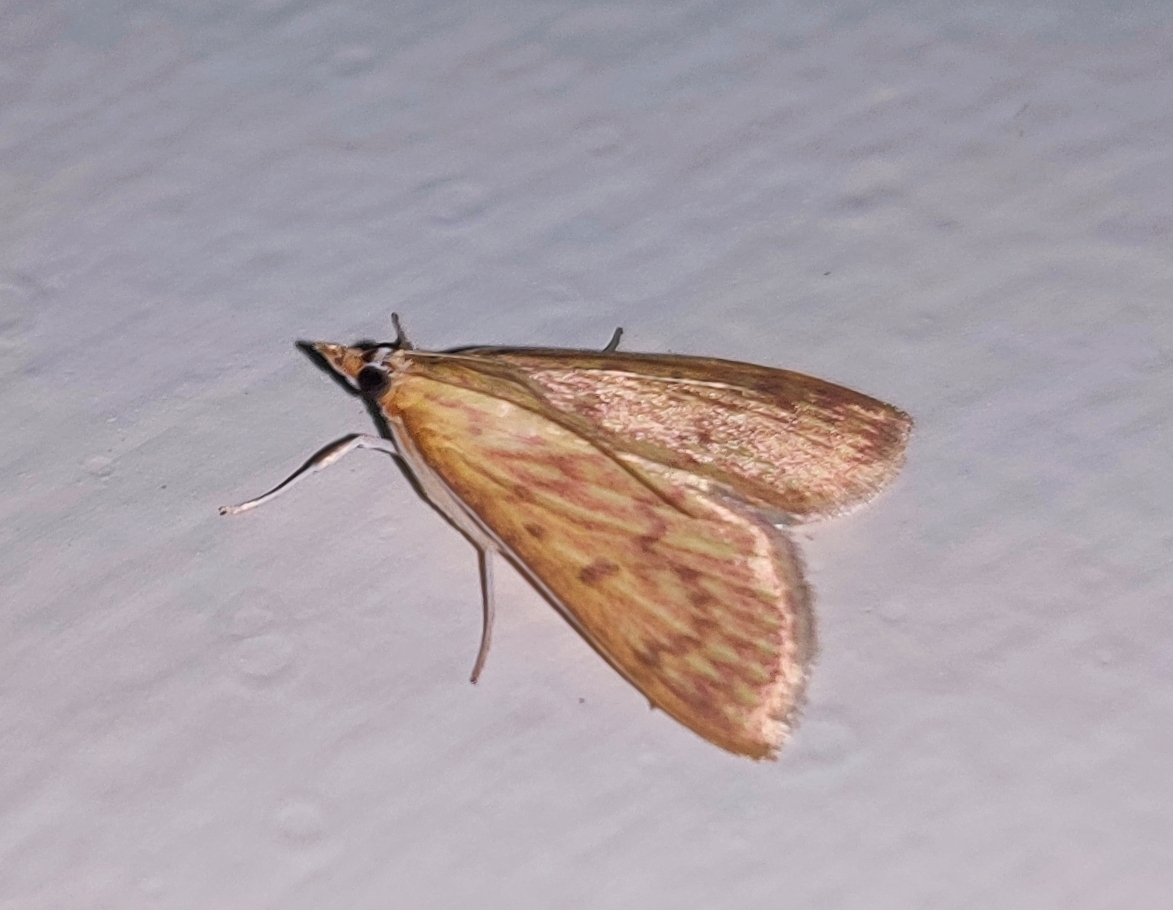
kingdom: Animalia
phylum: Arthropoda
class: Insecta
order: Lepidoptera
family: Crambidae
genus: Paliga
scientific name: Paliga damastesalis
